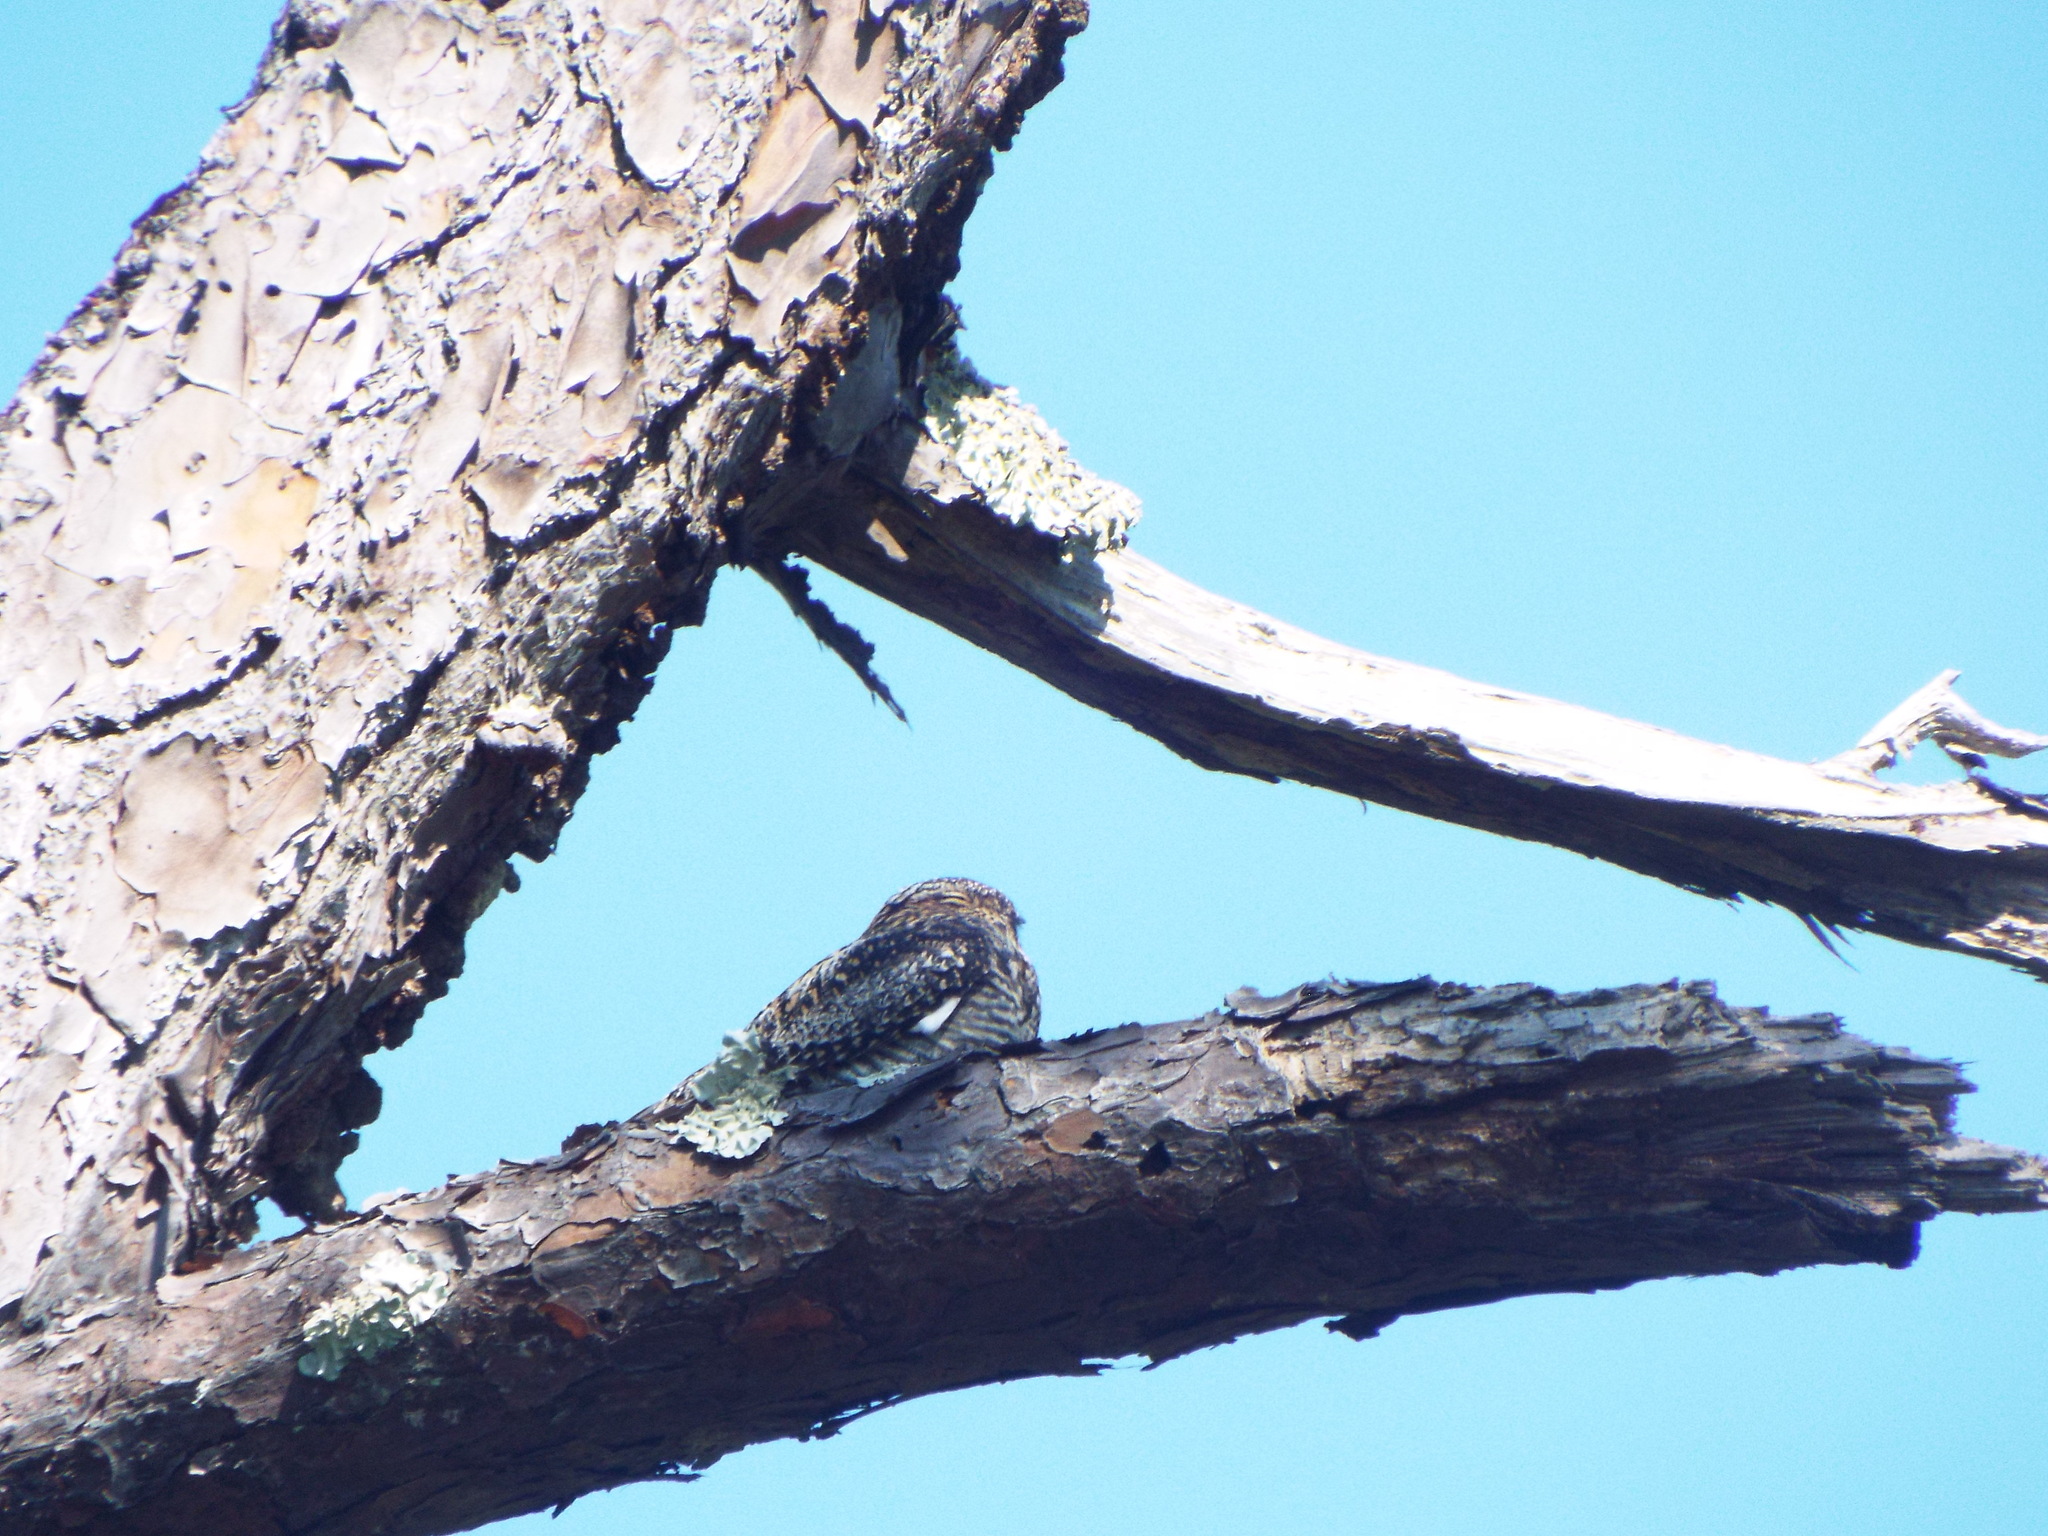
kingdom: Animalia
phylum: Chordata
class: Aves
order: Caprimulgiformes
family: Caprimulgidae
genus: Chordeiles
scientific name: Chordeiles minor
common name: Common nighthawk
